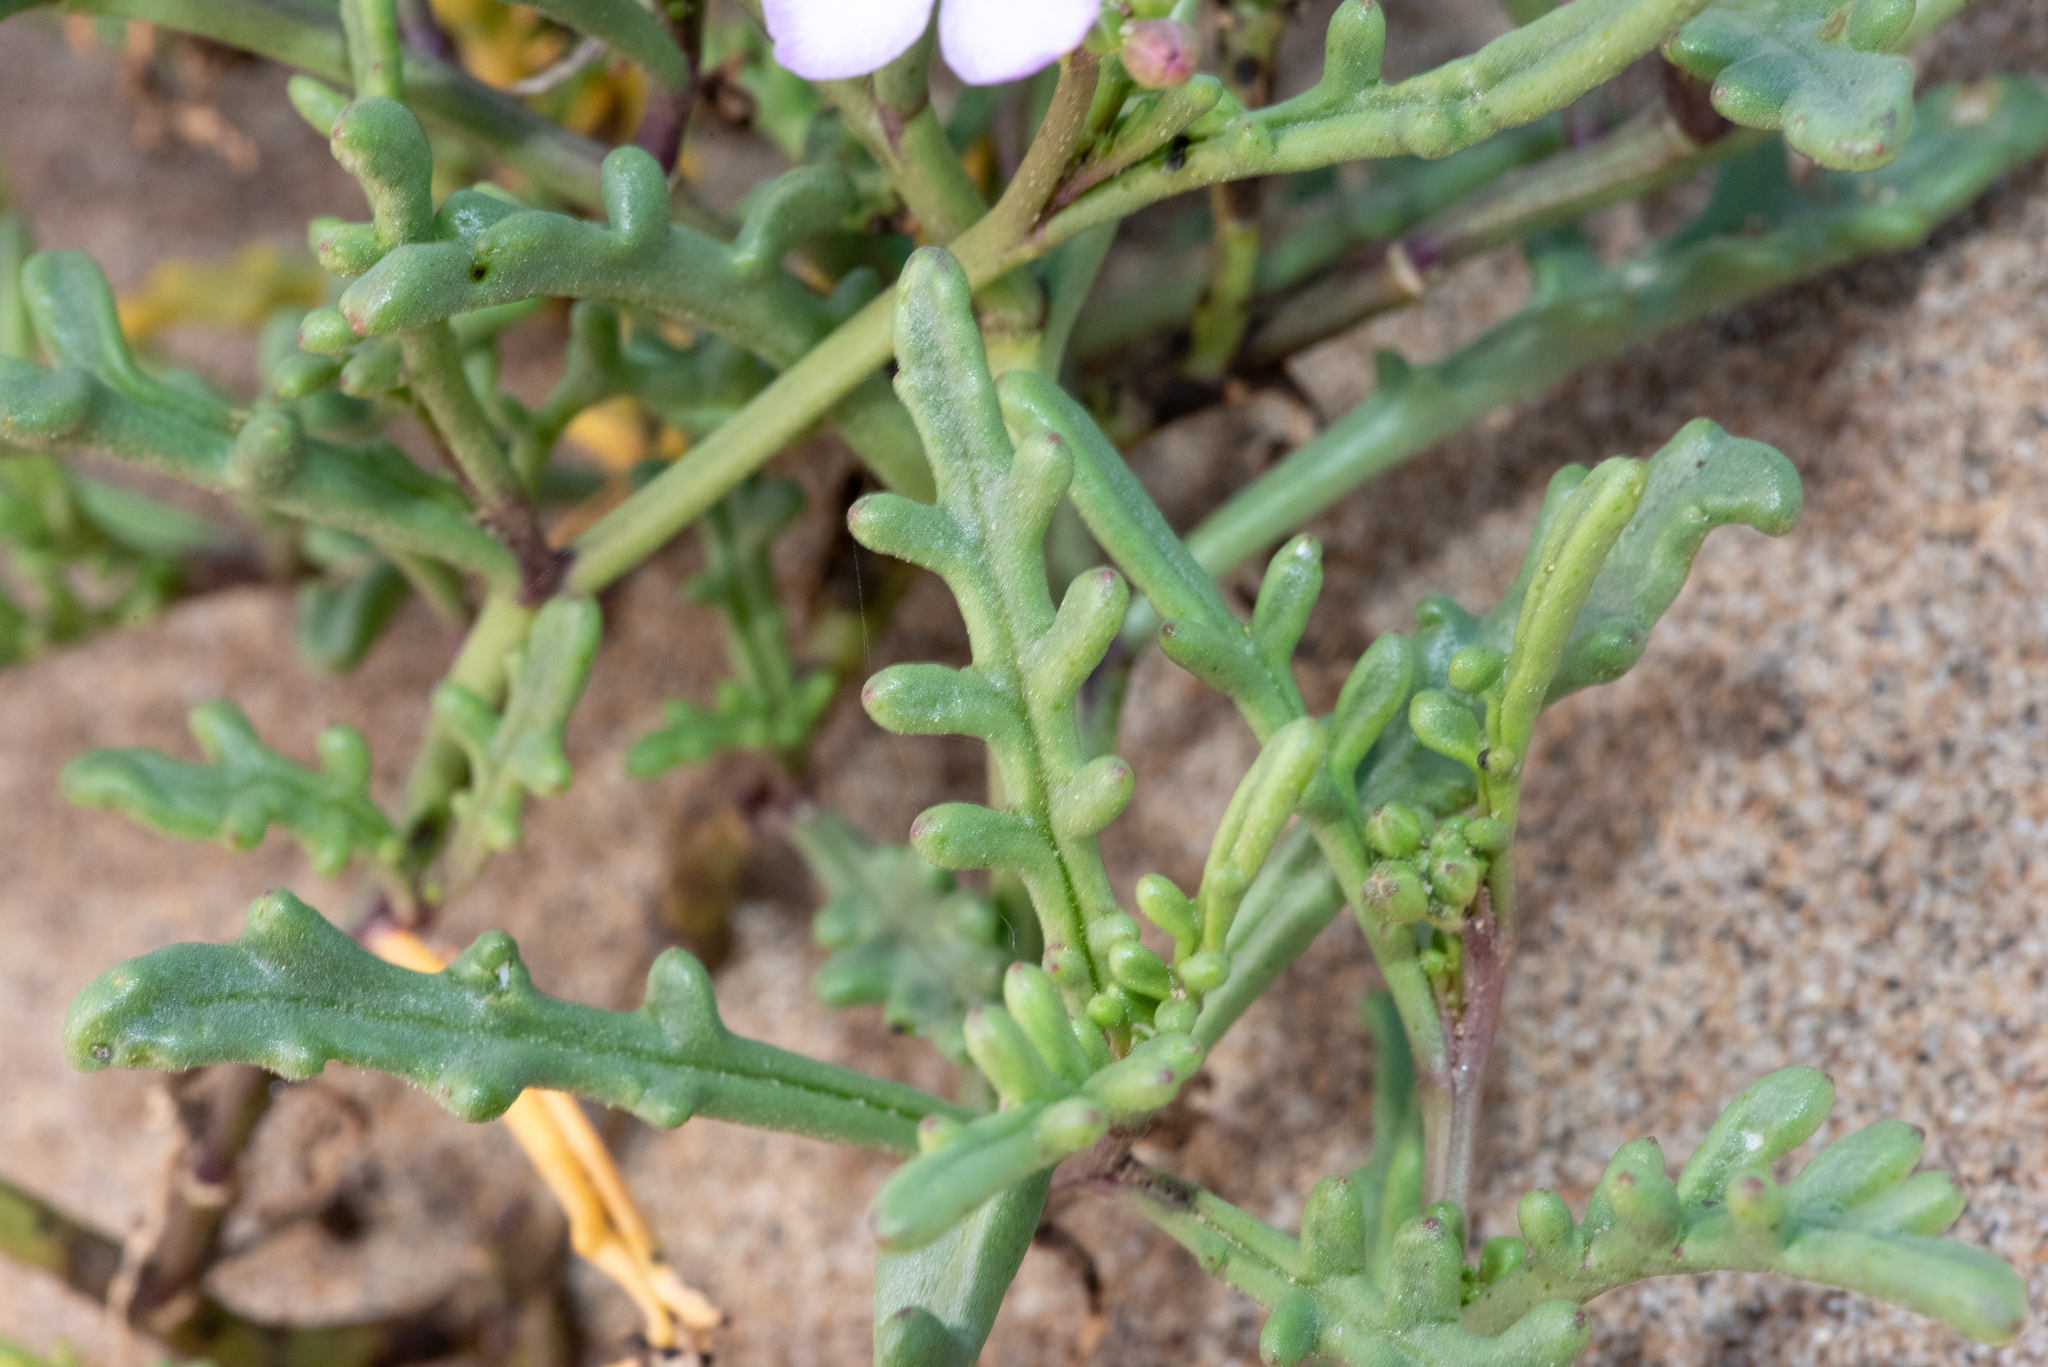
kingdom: Plantae
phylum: Tracheophyta
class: Magnoliopsida
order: Brassicales
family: Brassicaceae
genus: Cakile
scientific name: Cakile maritima
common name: Sea rocket
